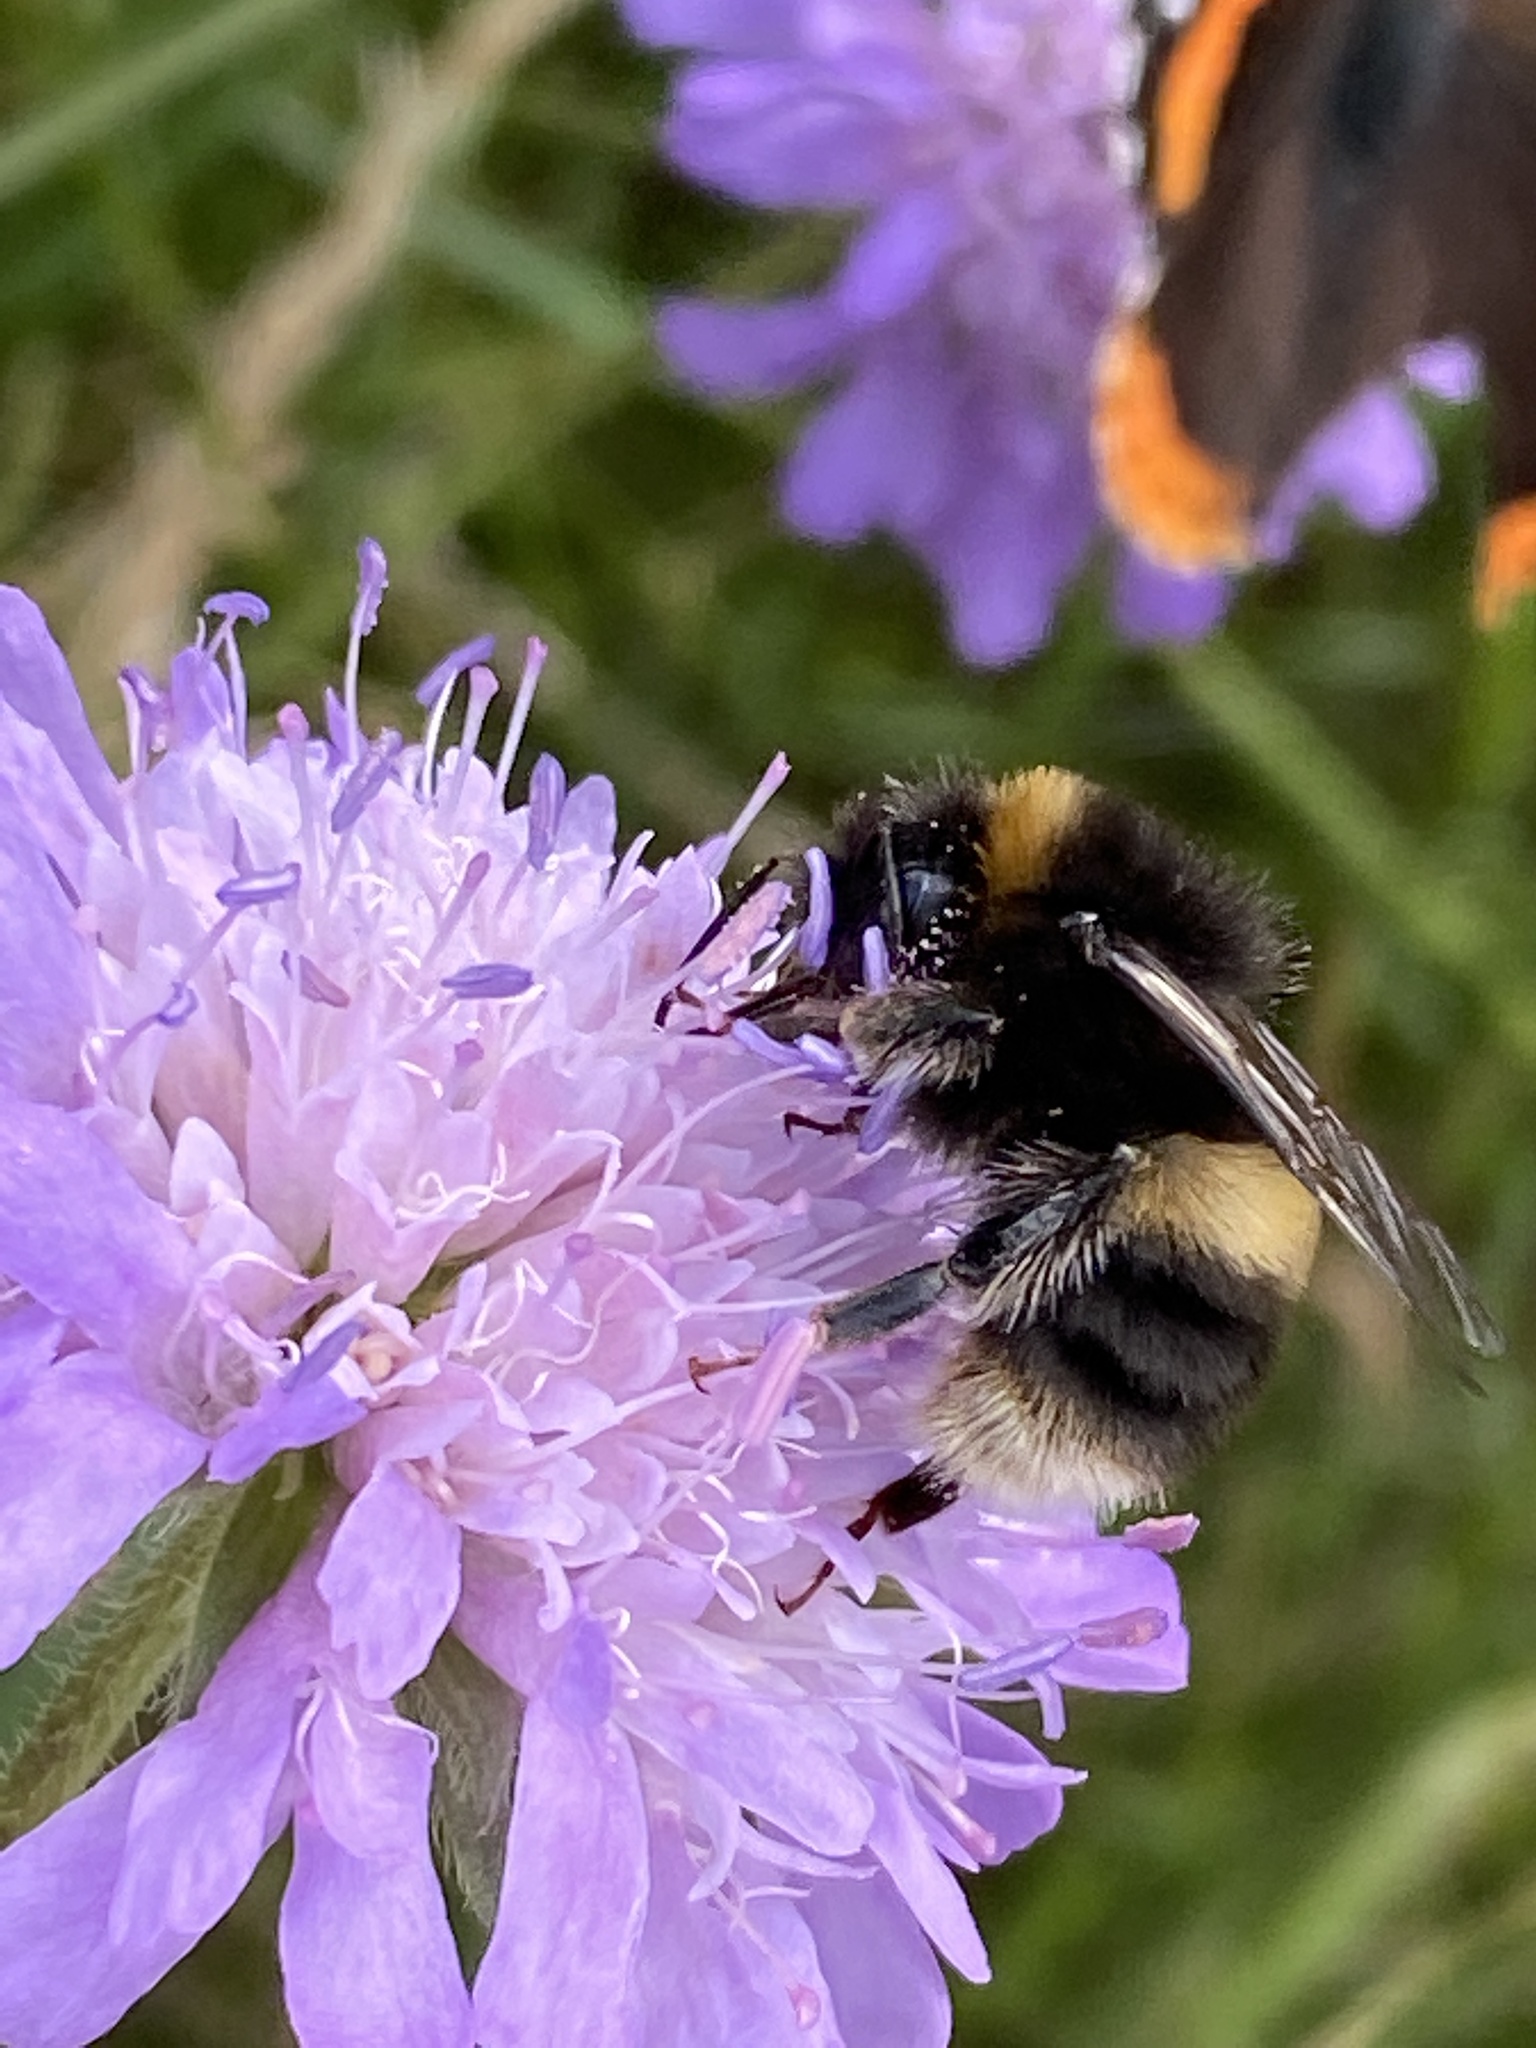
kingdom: Animalia
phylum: Arthropoda
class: Insecta
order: Hymenoptera
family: Apidae
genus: Bombus
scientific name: Bombus terrestris
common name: Buff-tailed bumblebee
